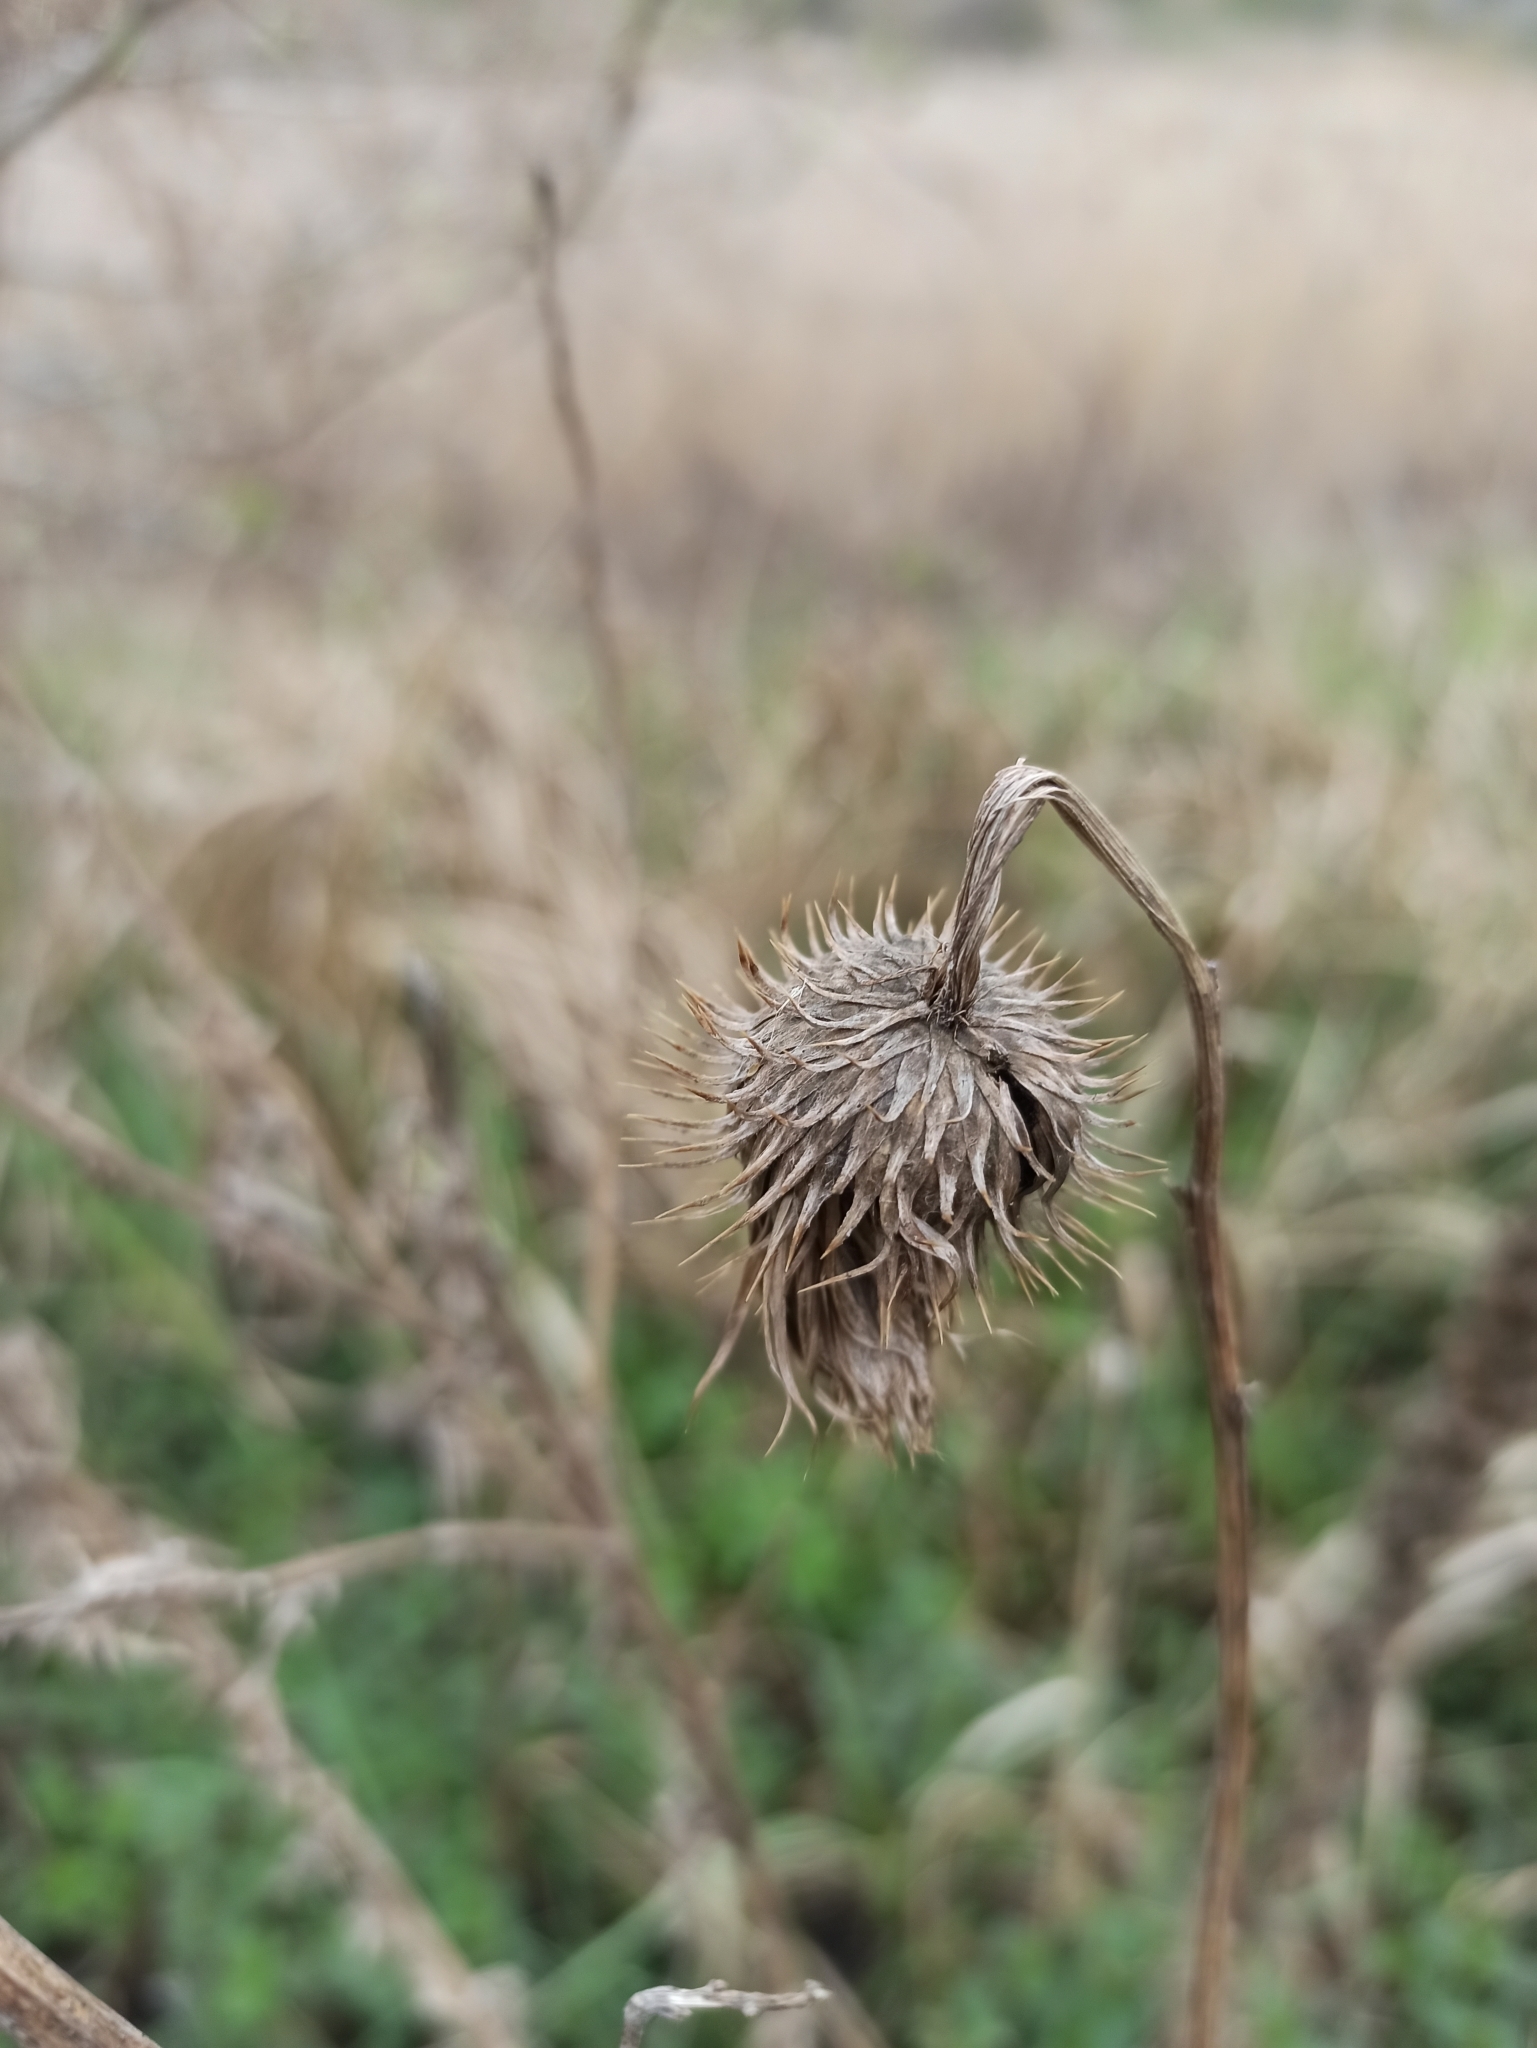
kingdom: Plantae
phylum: Tracheophyta
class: Magnoliopsida
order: Asterales
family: Asteraceae
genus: Cirsium
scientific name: Cirsium vulgare
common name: Bull thistle
